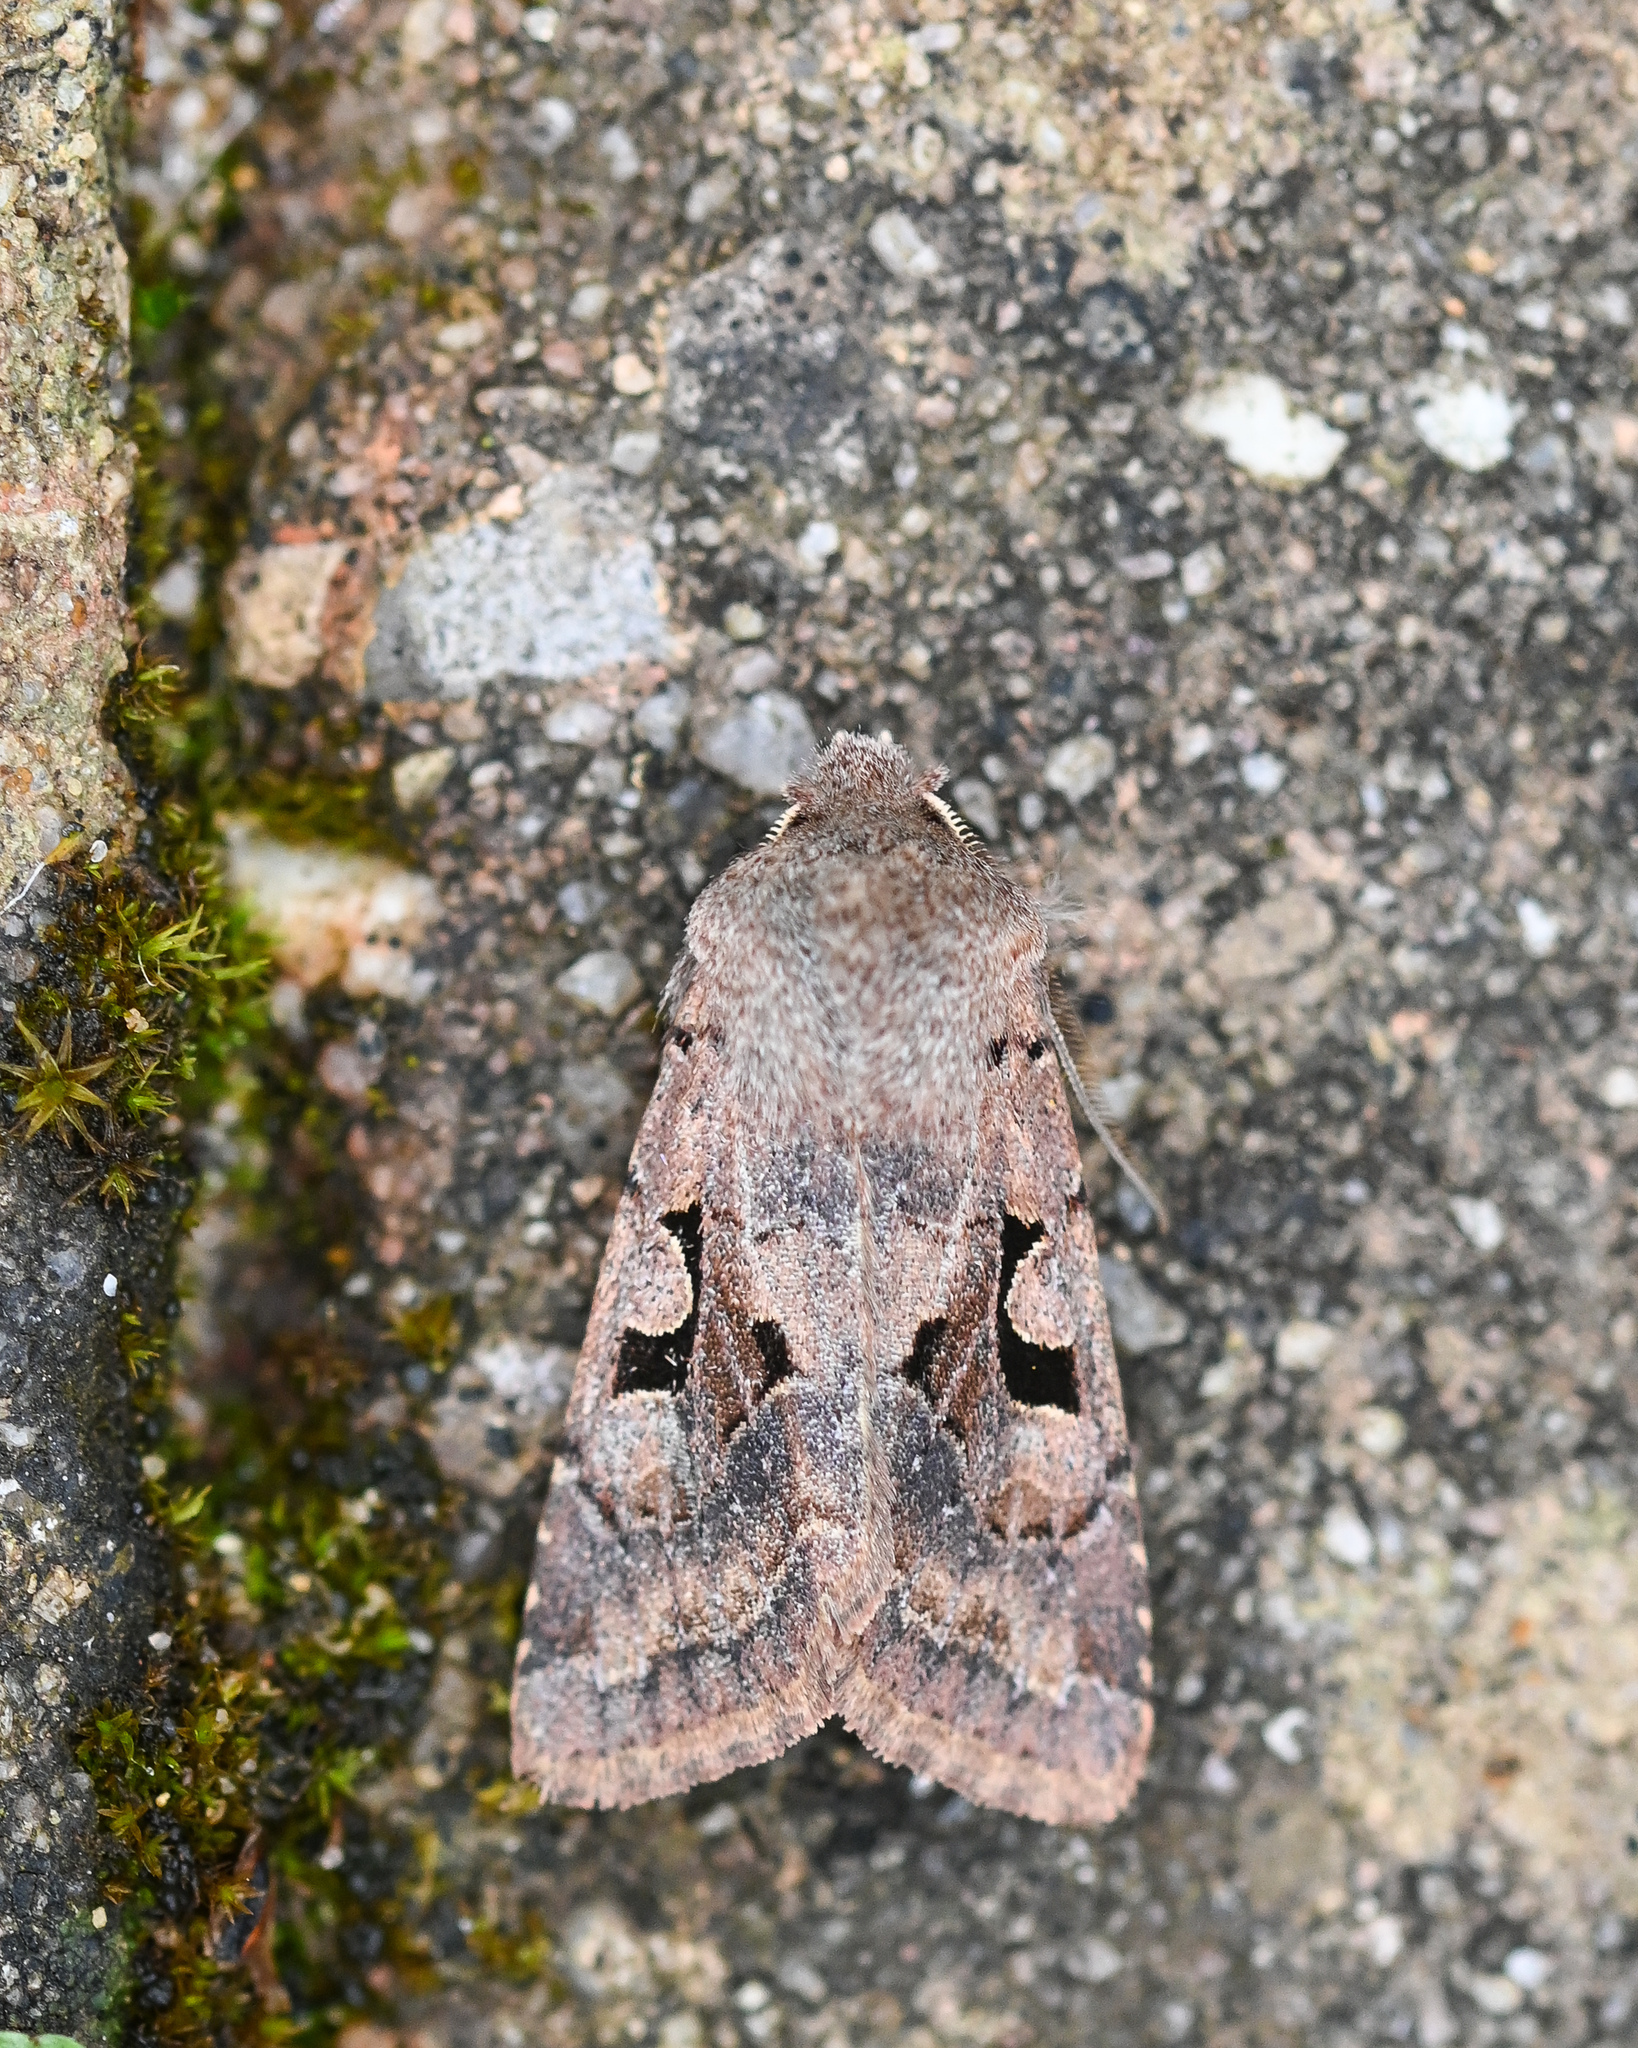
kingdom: Animalia
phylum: Arthropoda
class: Insecta
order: Lepidoptera
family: Noctuidae
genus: Orthosia
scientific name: Orthosia gothica
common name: Hebrew character
